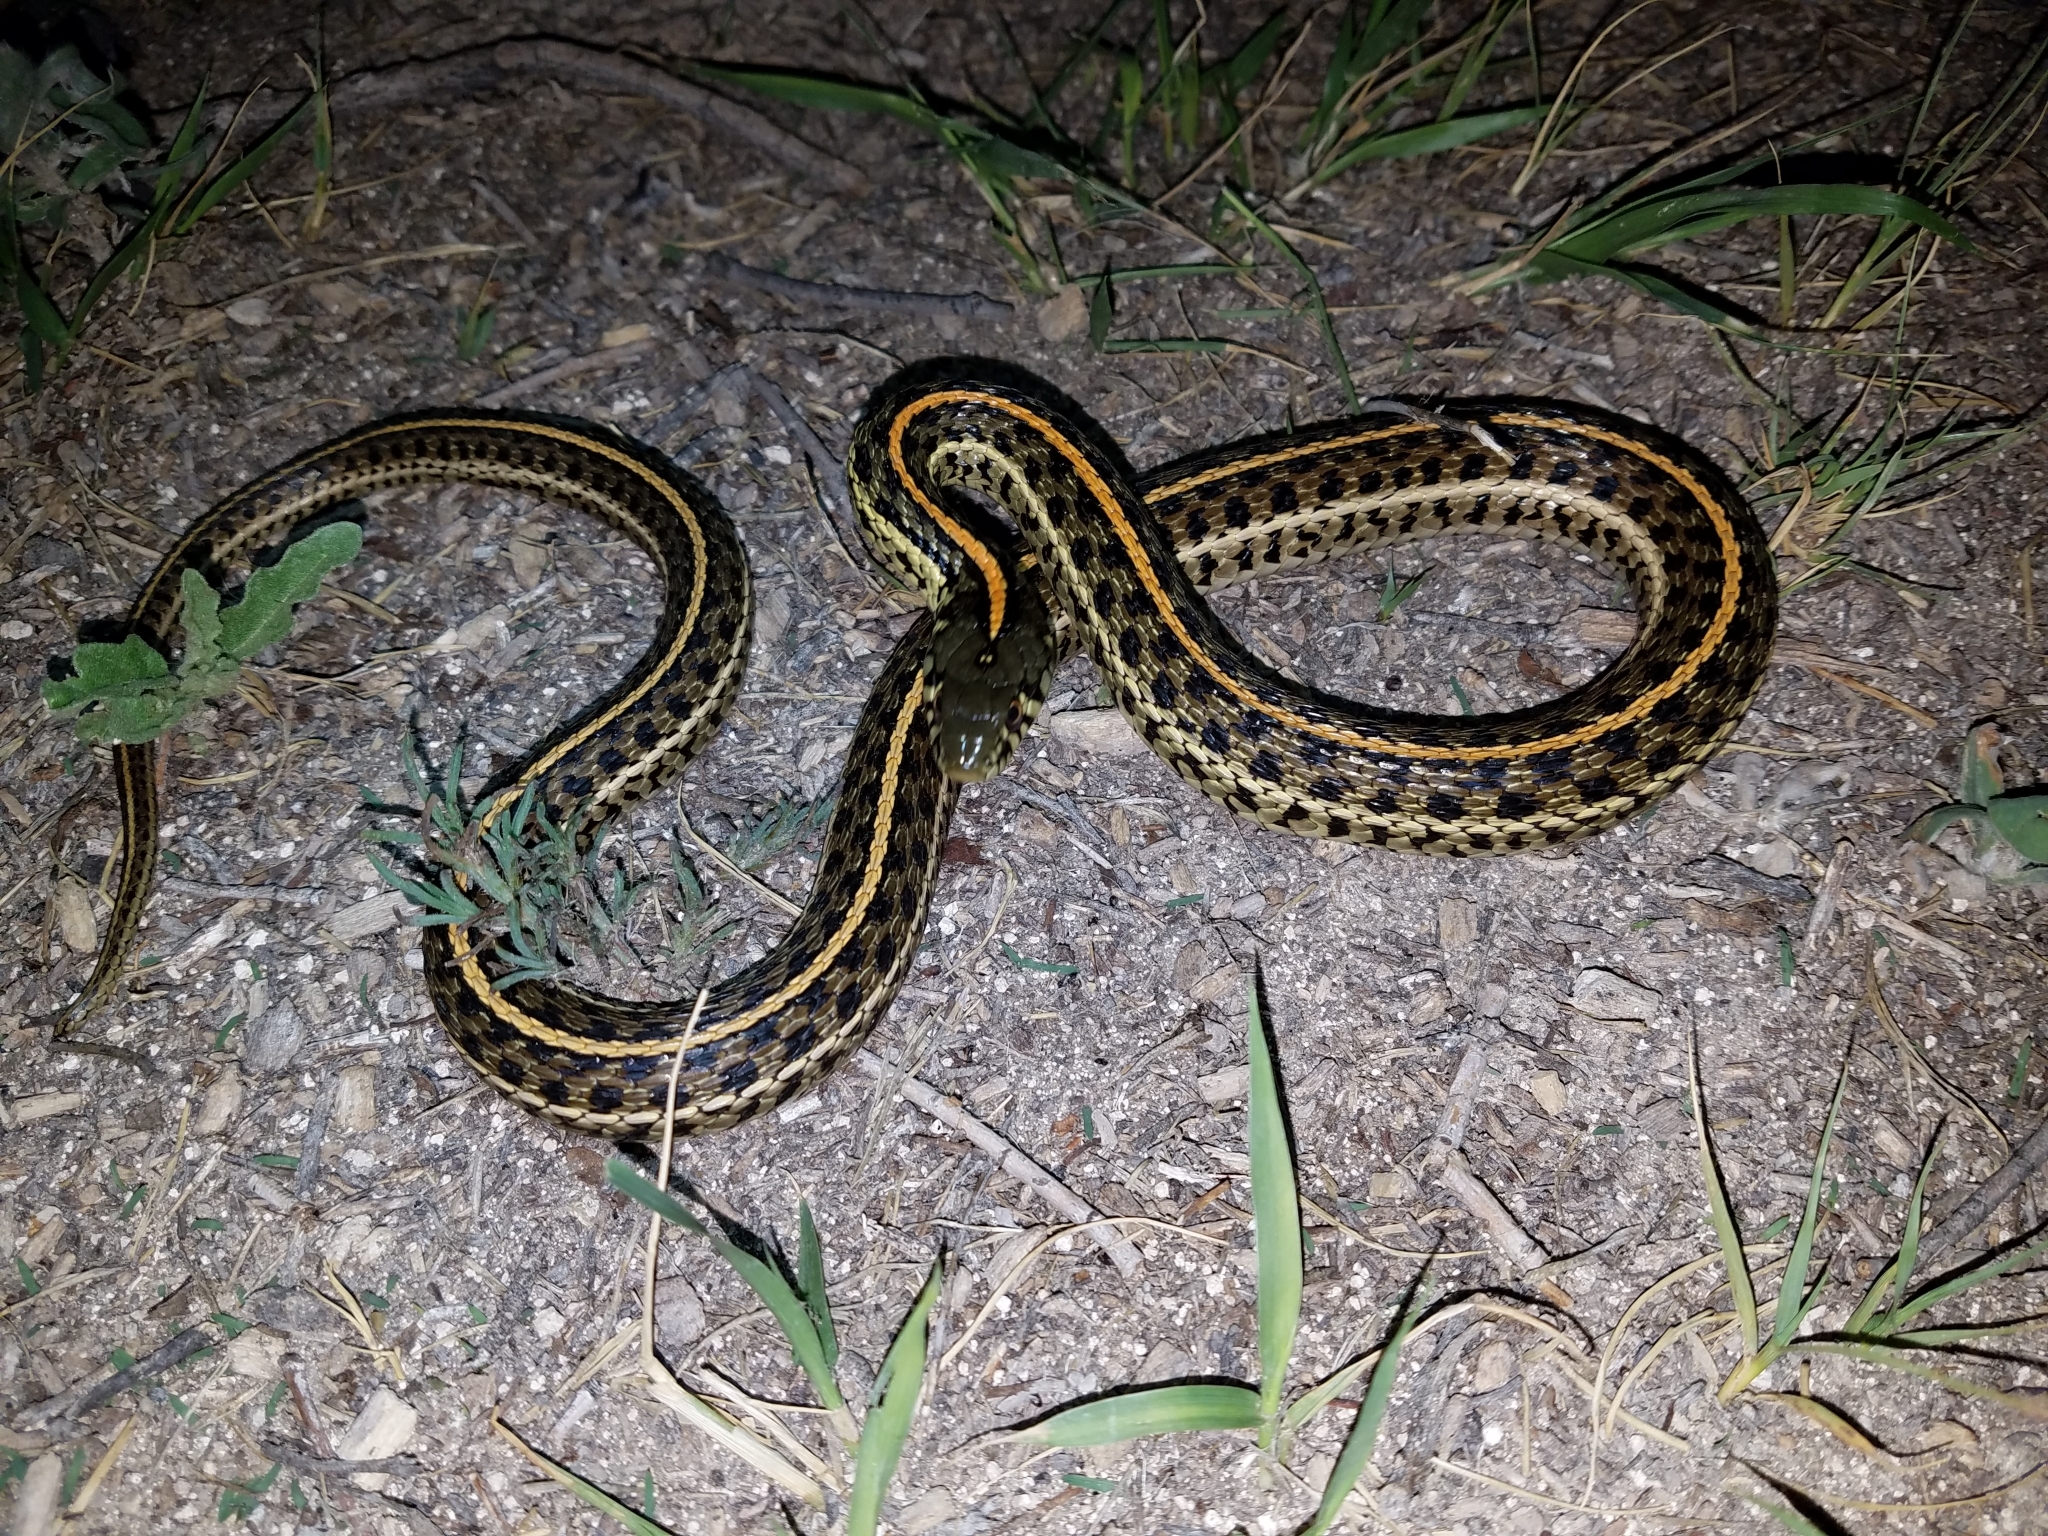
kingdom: Animalia
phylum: Chordata
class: Squamata
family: Colubridae
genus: Thamnophis
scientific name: Thamnophis radix
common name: Plains garter snake
